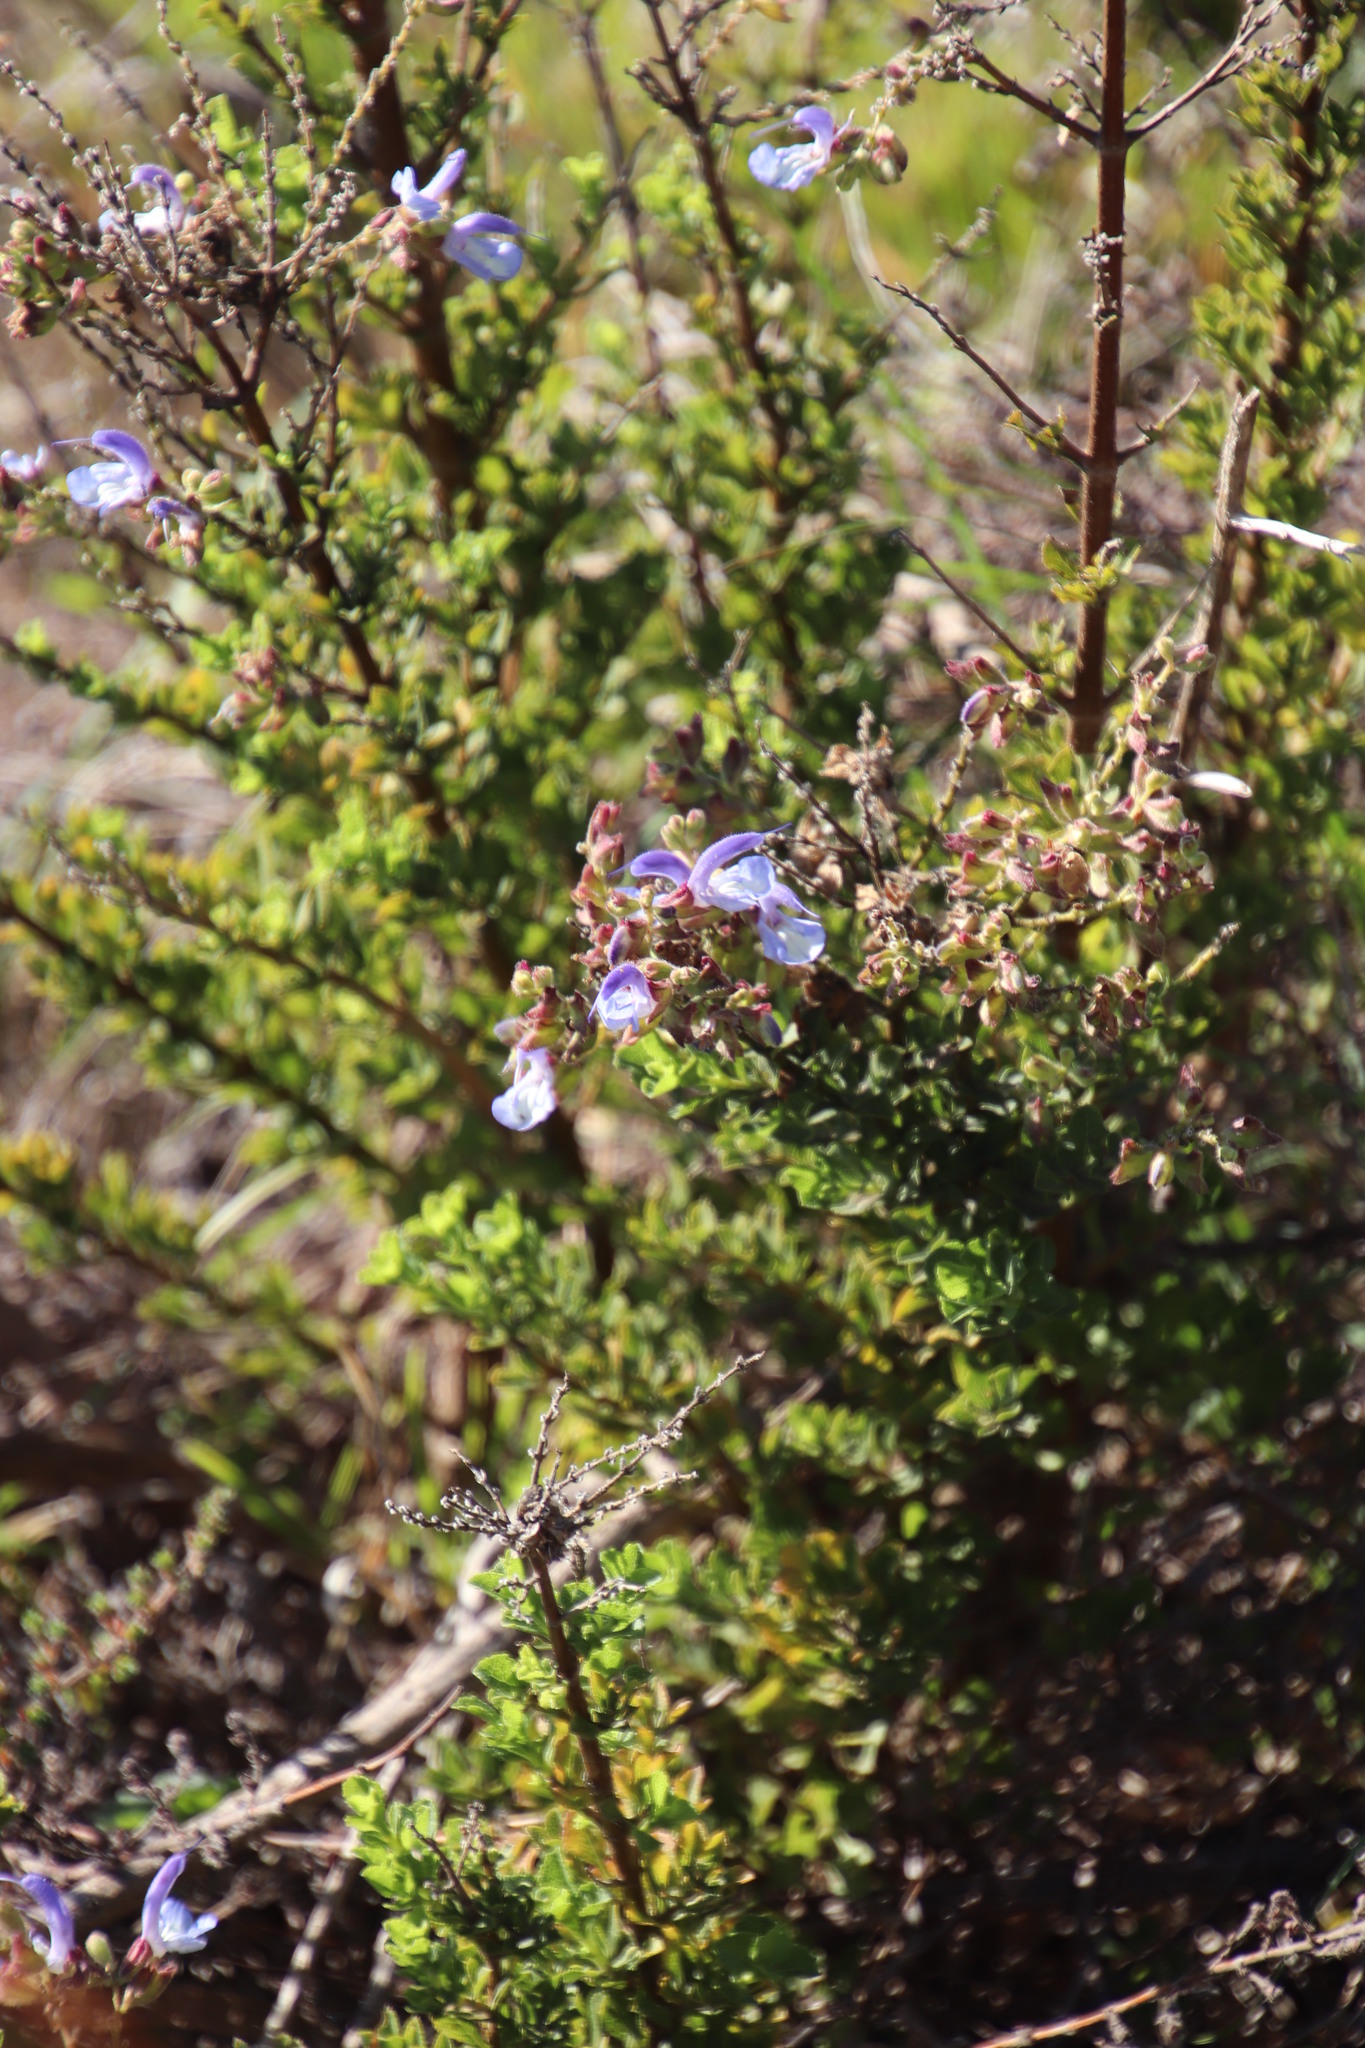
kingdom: Plantae
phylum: Tracheophyta
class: Magnoliopsida
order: Lamiales
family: Lamiaceae
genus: Salvia
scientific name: Salvia chamelaeagnea
